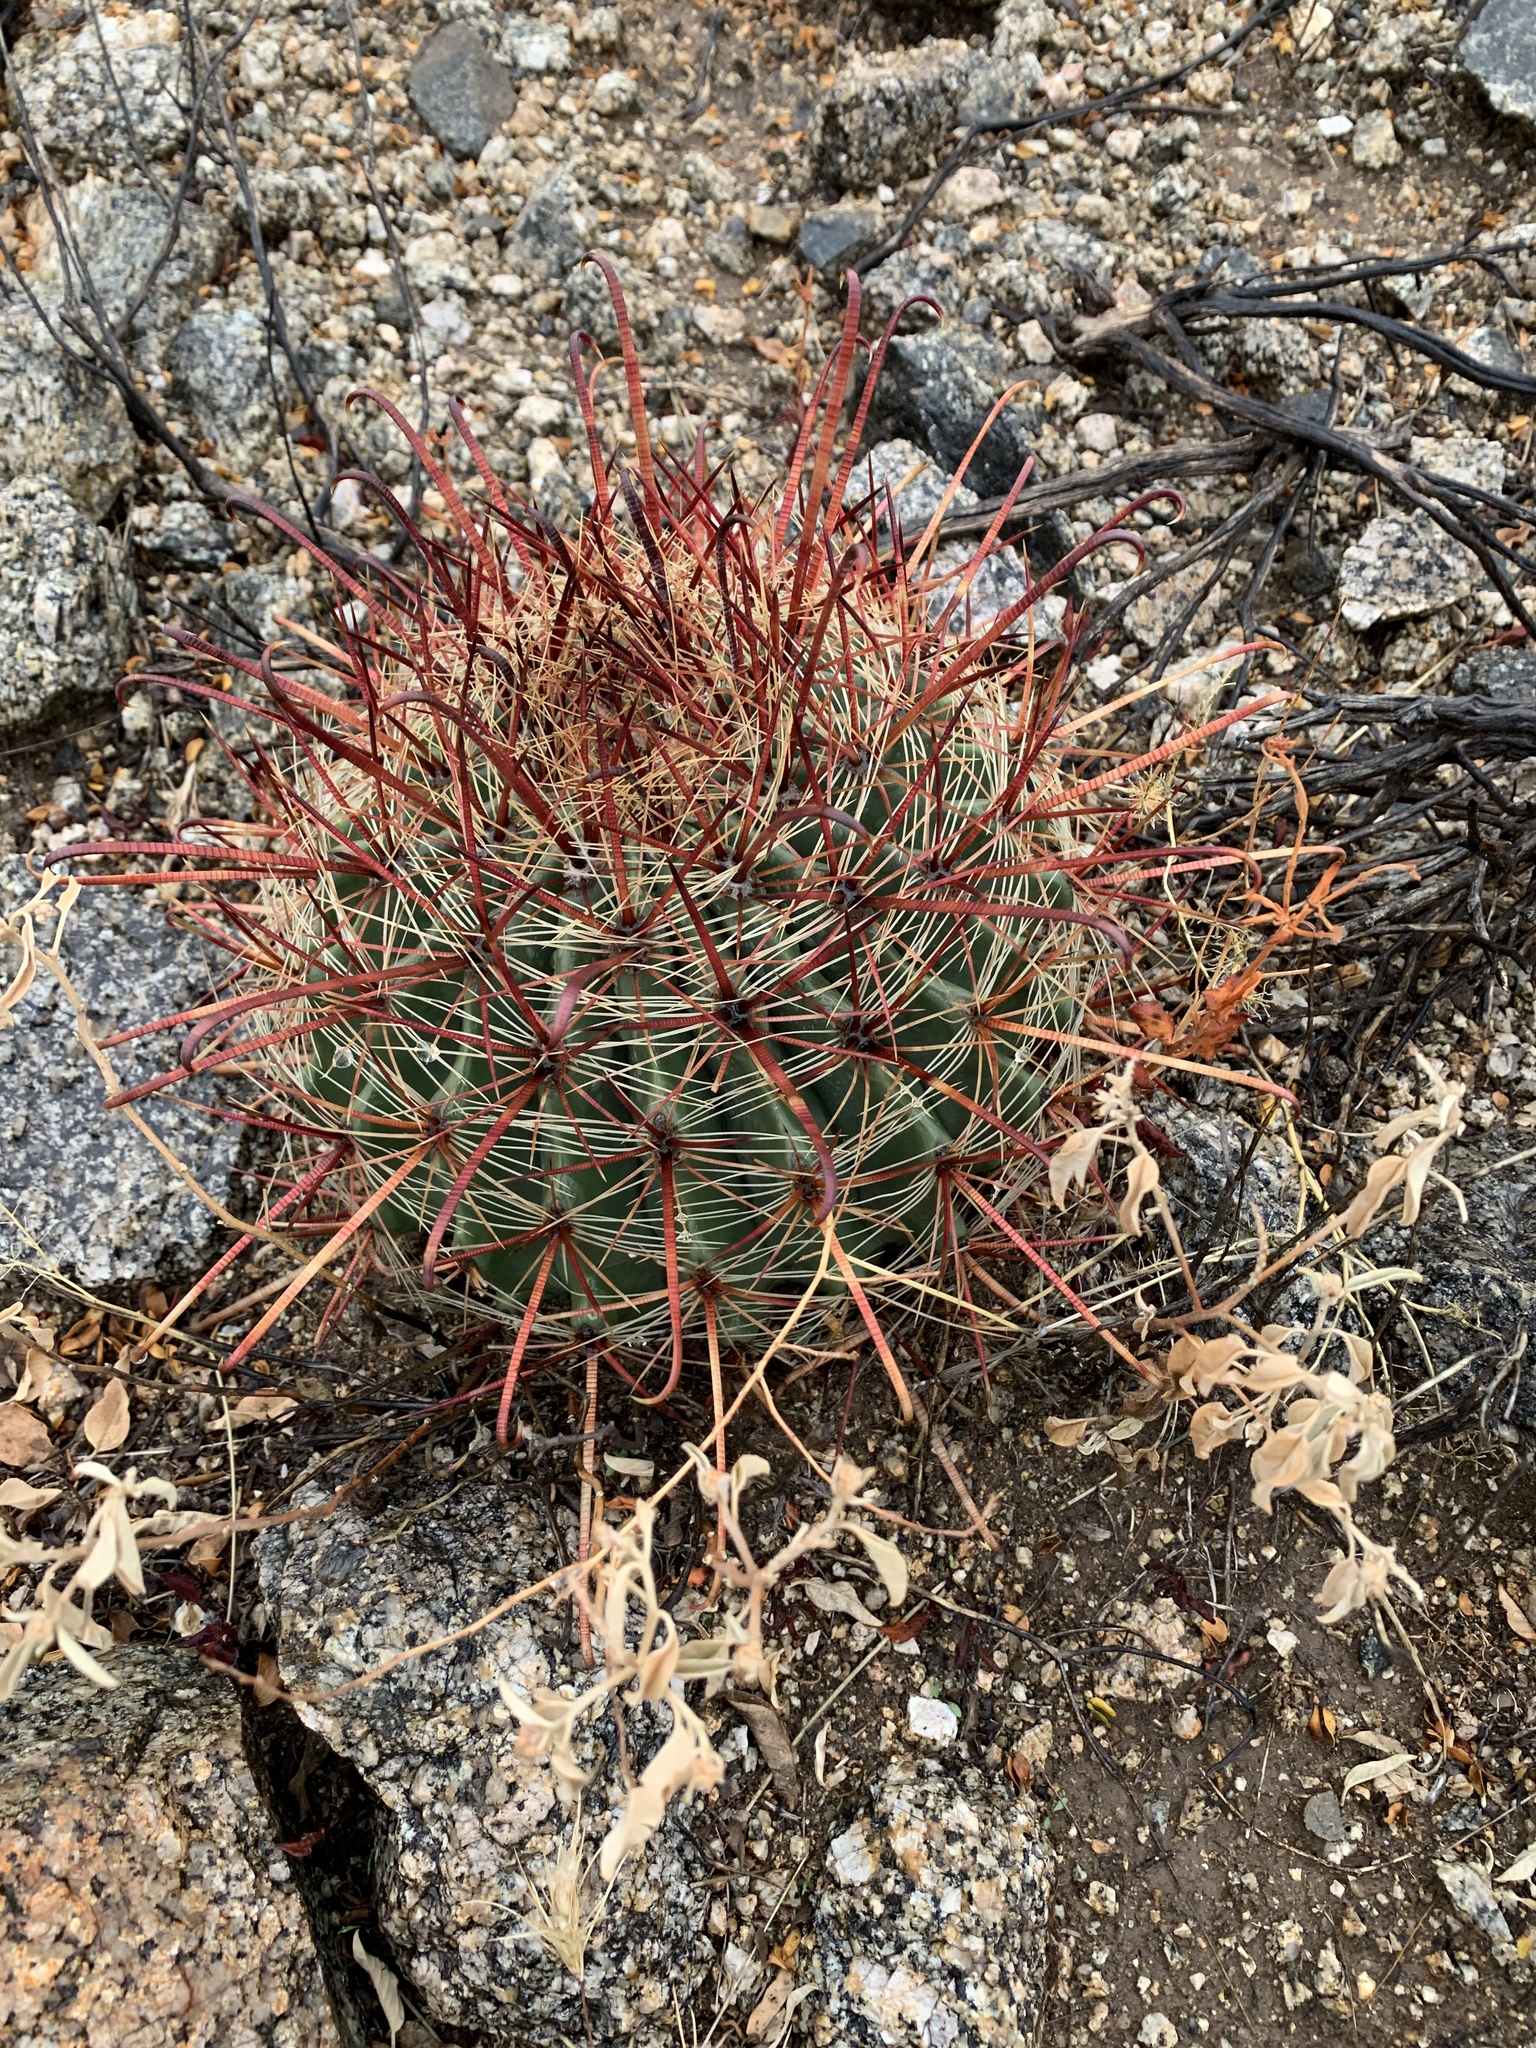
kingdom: Plantae
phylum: Tracheophyta
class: Magnoliopsida
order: Caryophyllales
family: Cactaceae
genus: Ferocactus
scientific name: Ferocactus wislizeni
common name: Candy barrel cactus
